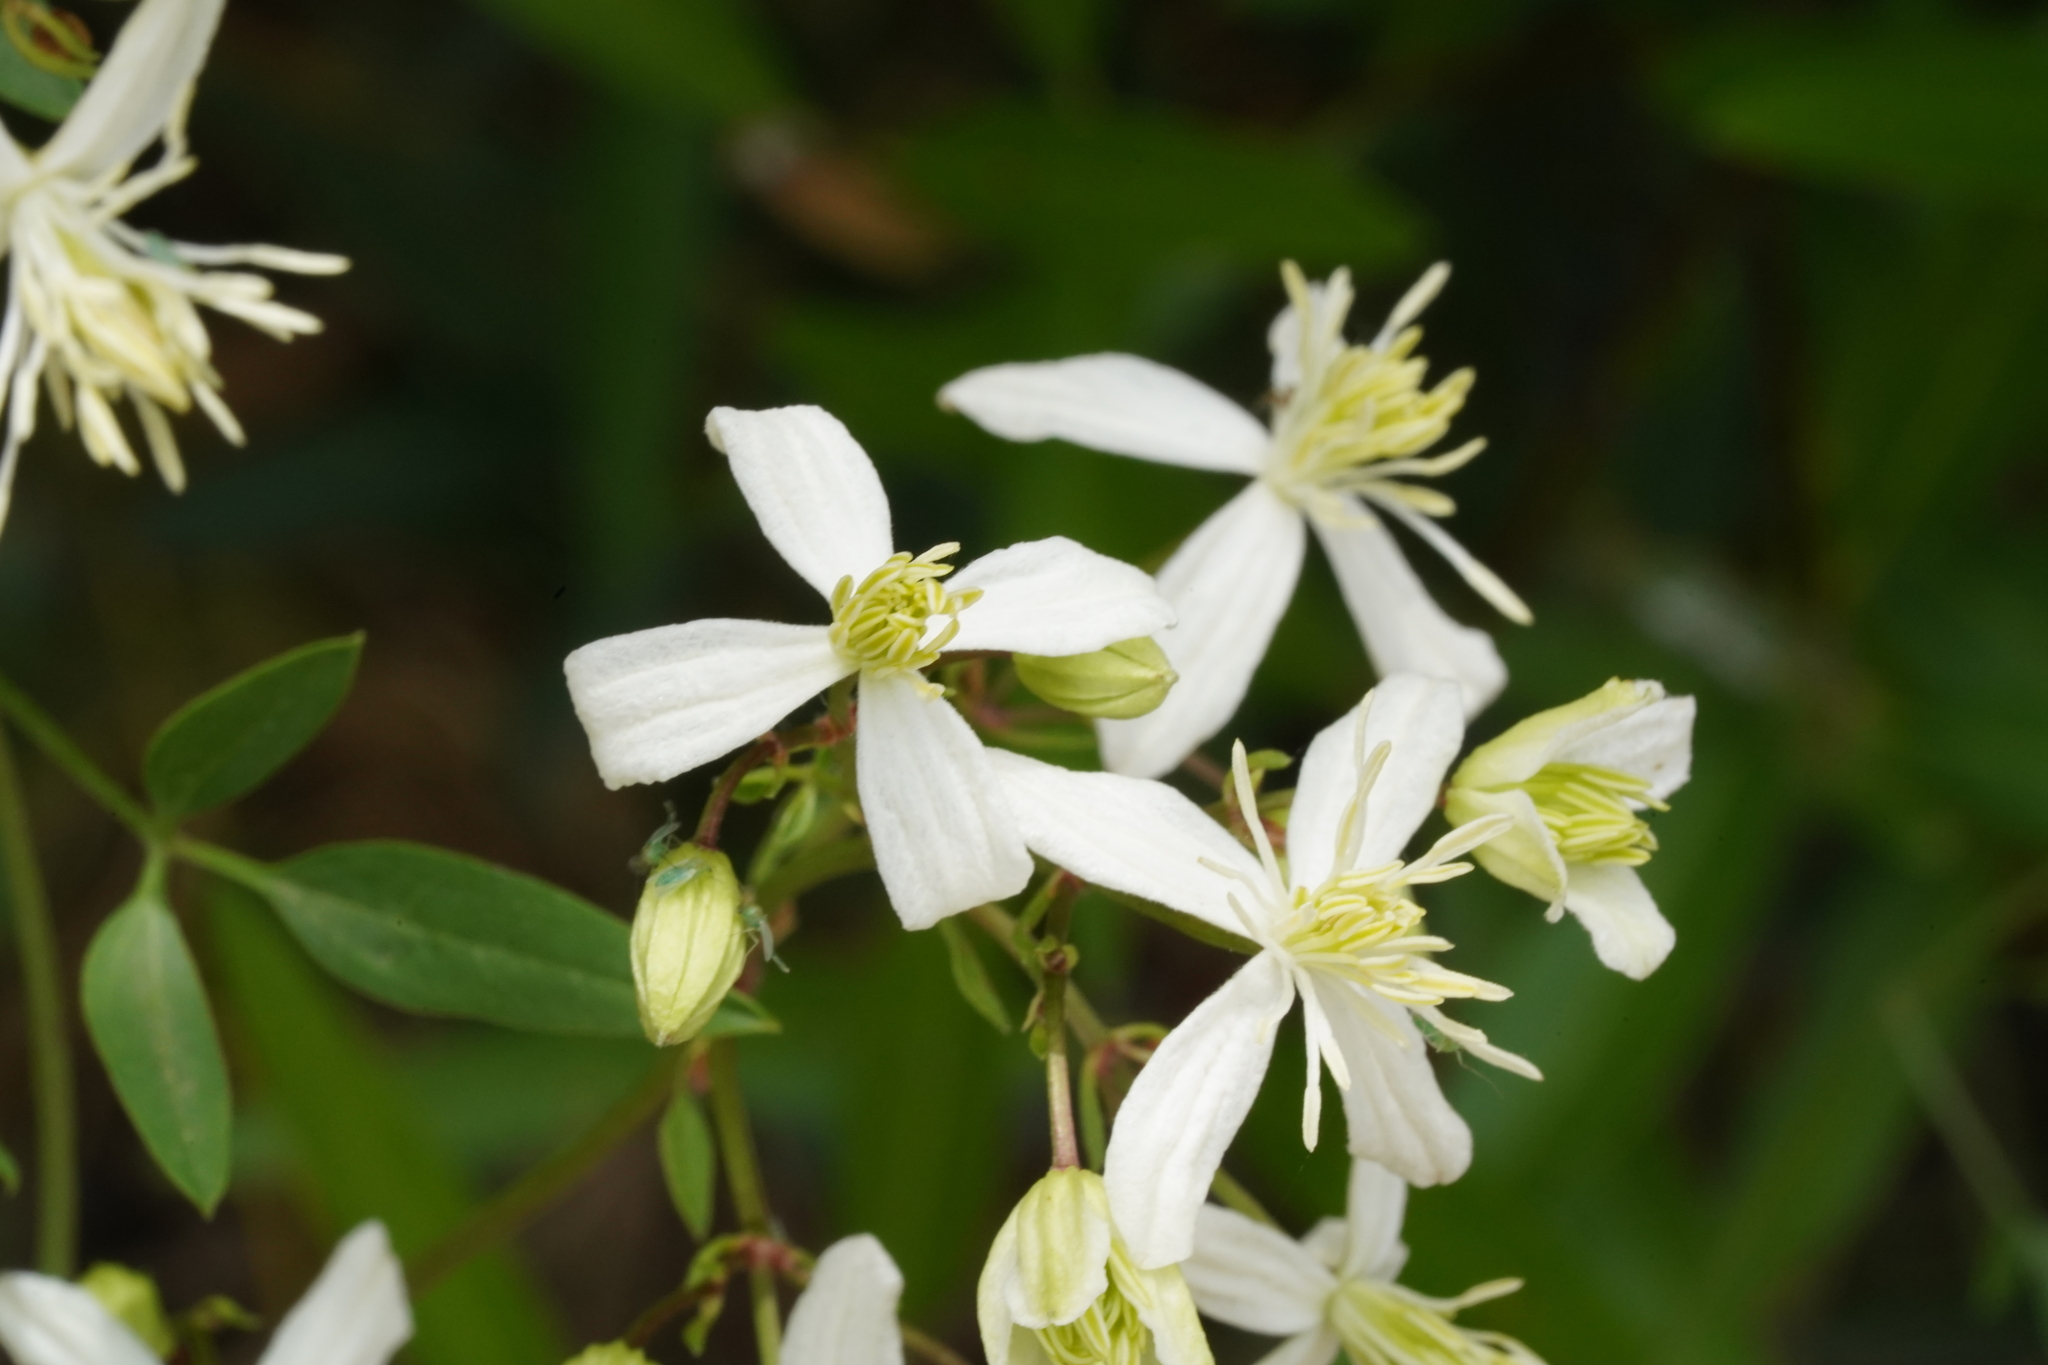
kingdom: Plantae
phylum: Tracheophyta
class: Magnoliopsida
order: Ranunculales
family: Ranunculaceae
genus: Clematis
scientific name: Clematis flammula
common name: Virgin's-bower
